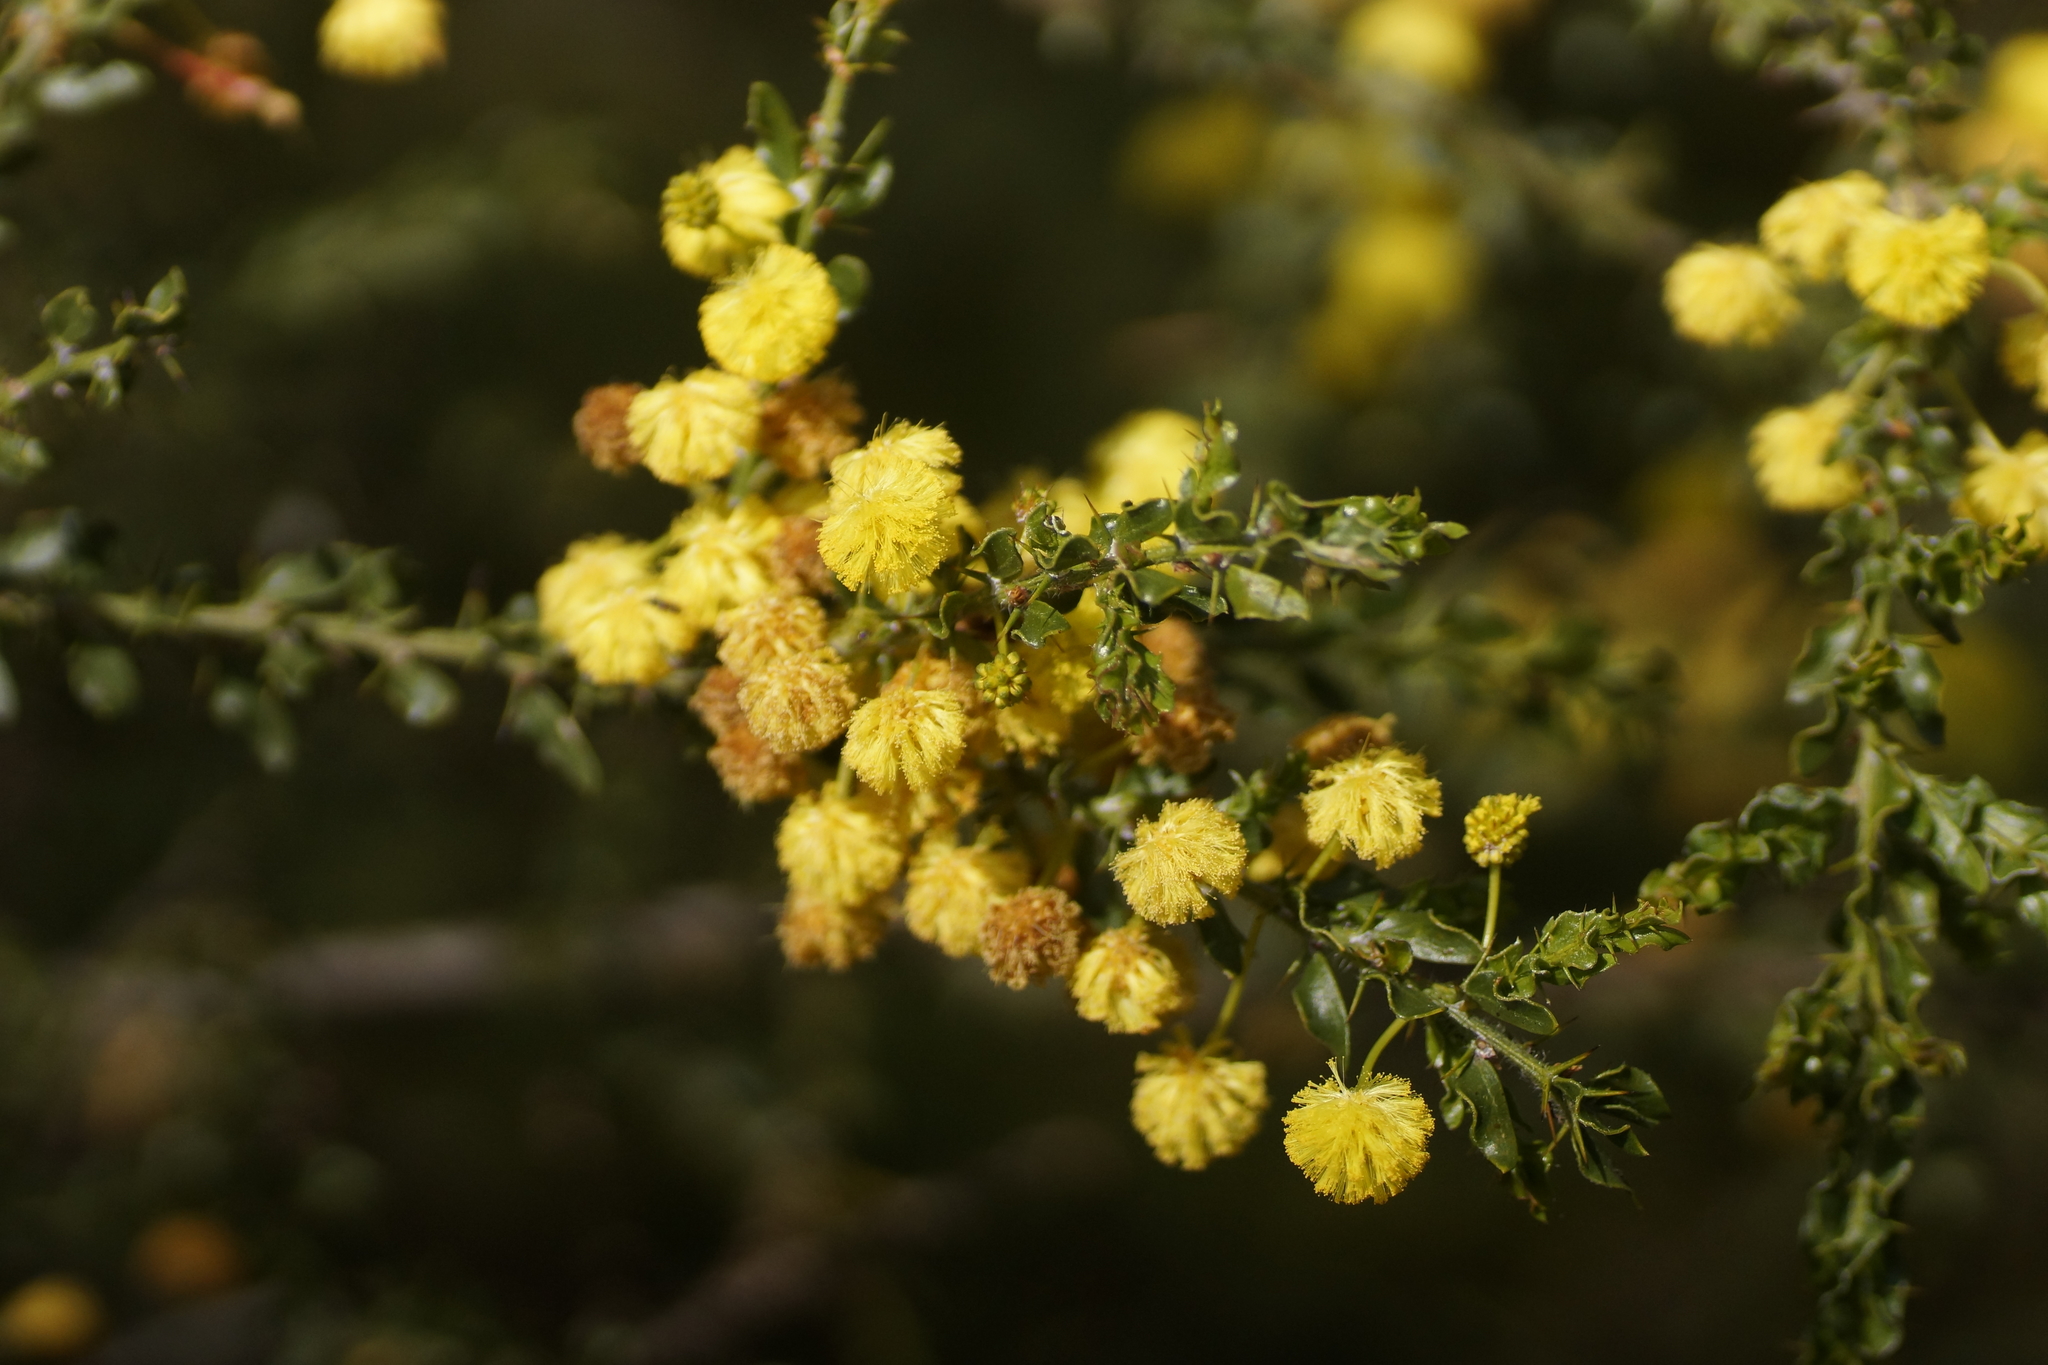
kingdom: Plantae
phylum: Tracheophyta
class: Magnoliopsida
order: Fabales
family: Fabaceae
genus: Acacia
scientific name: Acacia paradoxa
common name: Paradox acacia
